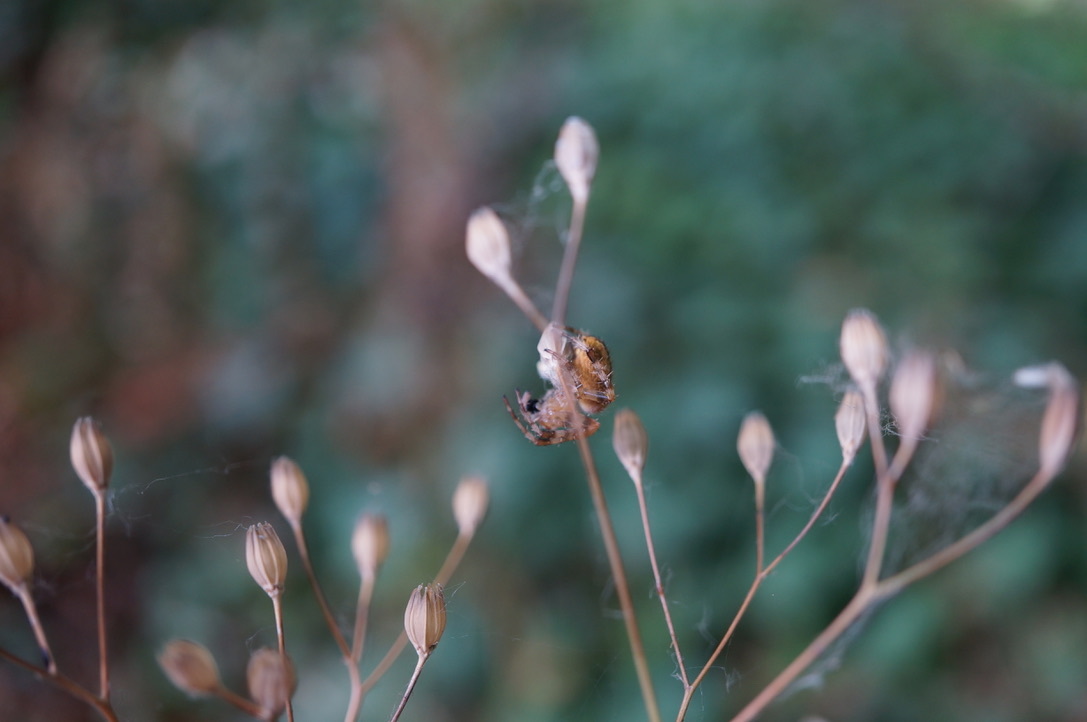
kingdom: Animalia
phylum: Arthropoda
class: Arachnida
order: Araneae
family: Araneidae
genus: Araneus
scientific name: Araneus diadematus
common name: Cross orbweaver
